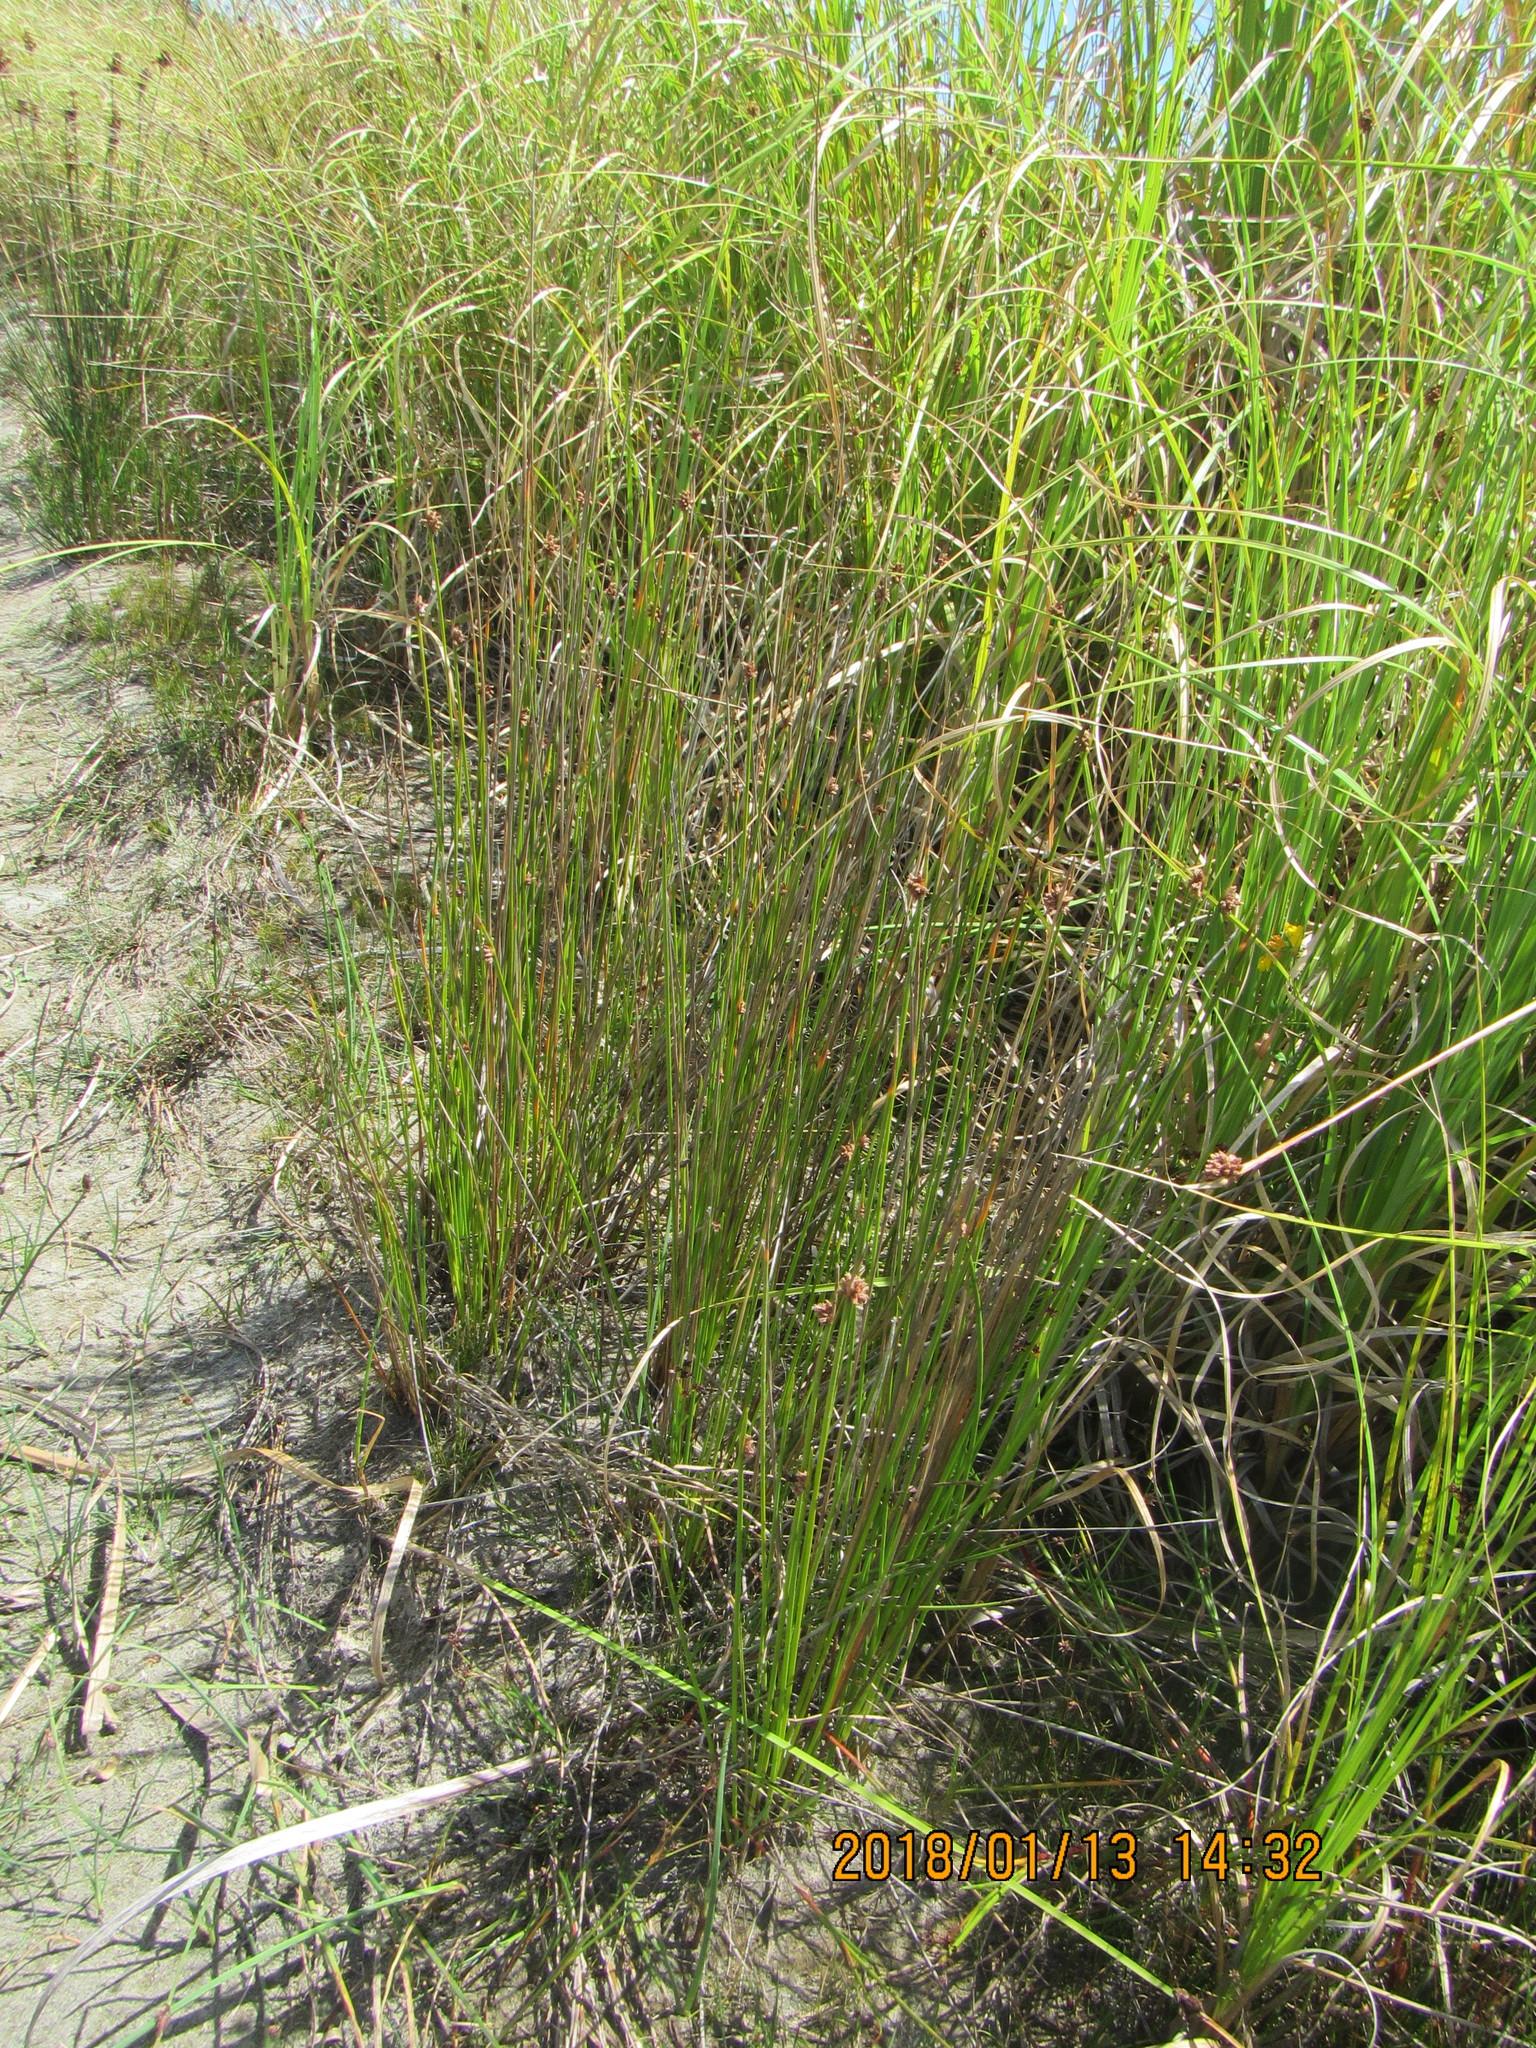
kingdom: Plantae
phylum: Tracheophyta
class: Liliopsida
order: Poales
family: Cyperaceae
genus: Ficinia
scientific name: Ficinia nodosa
